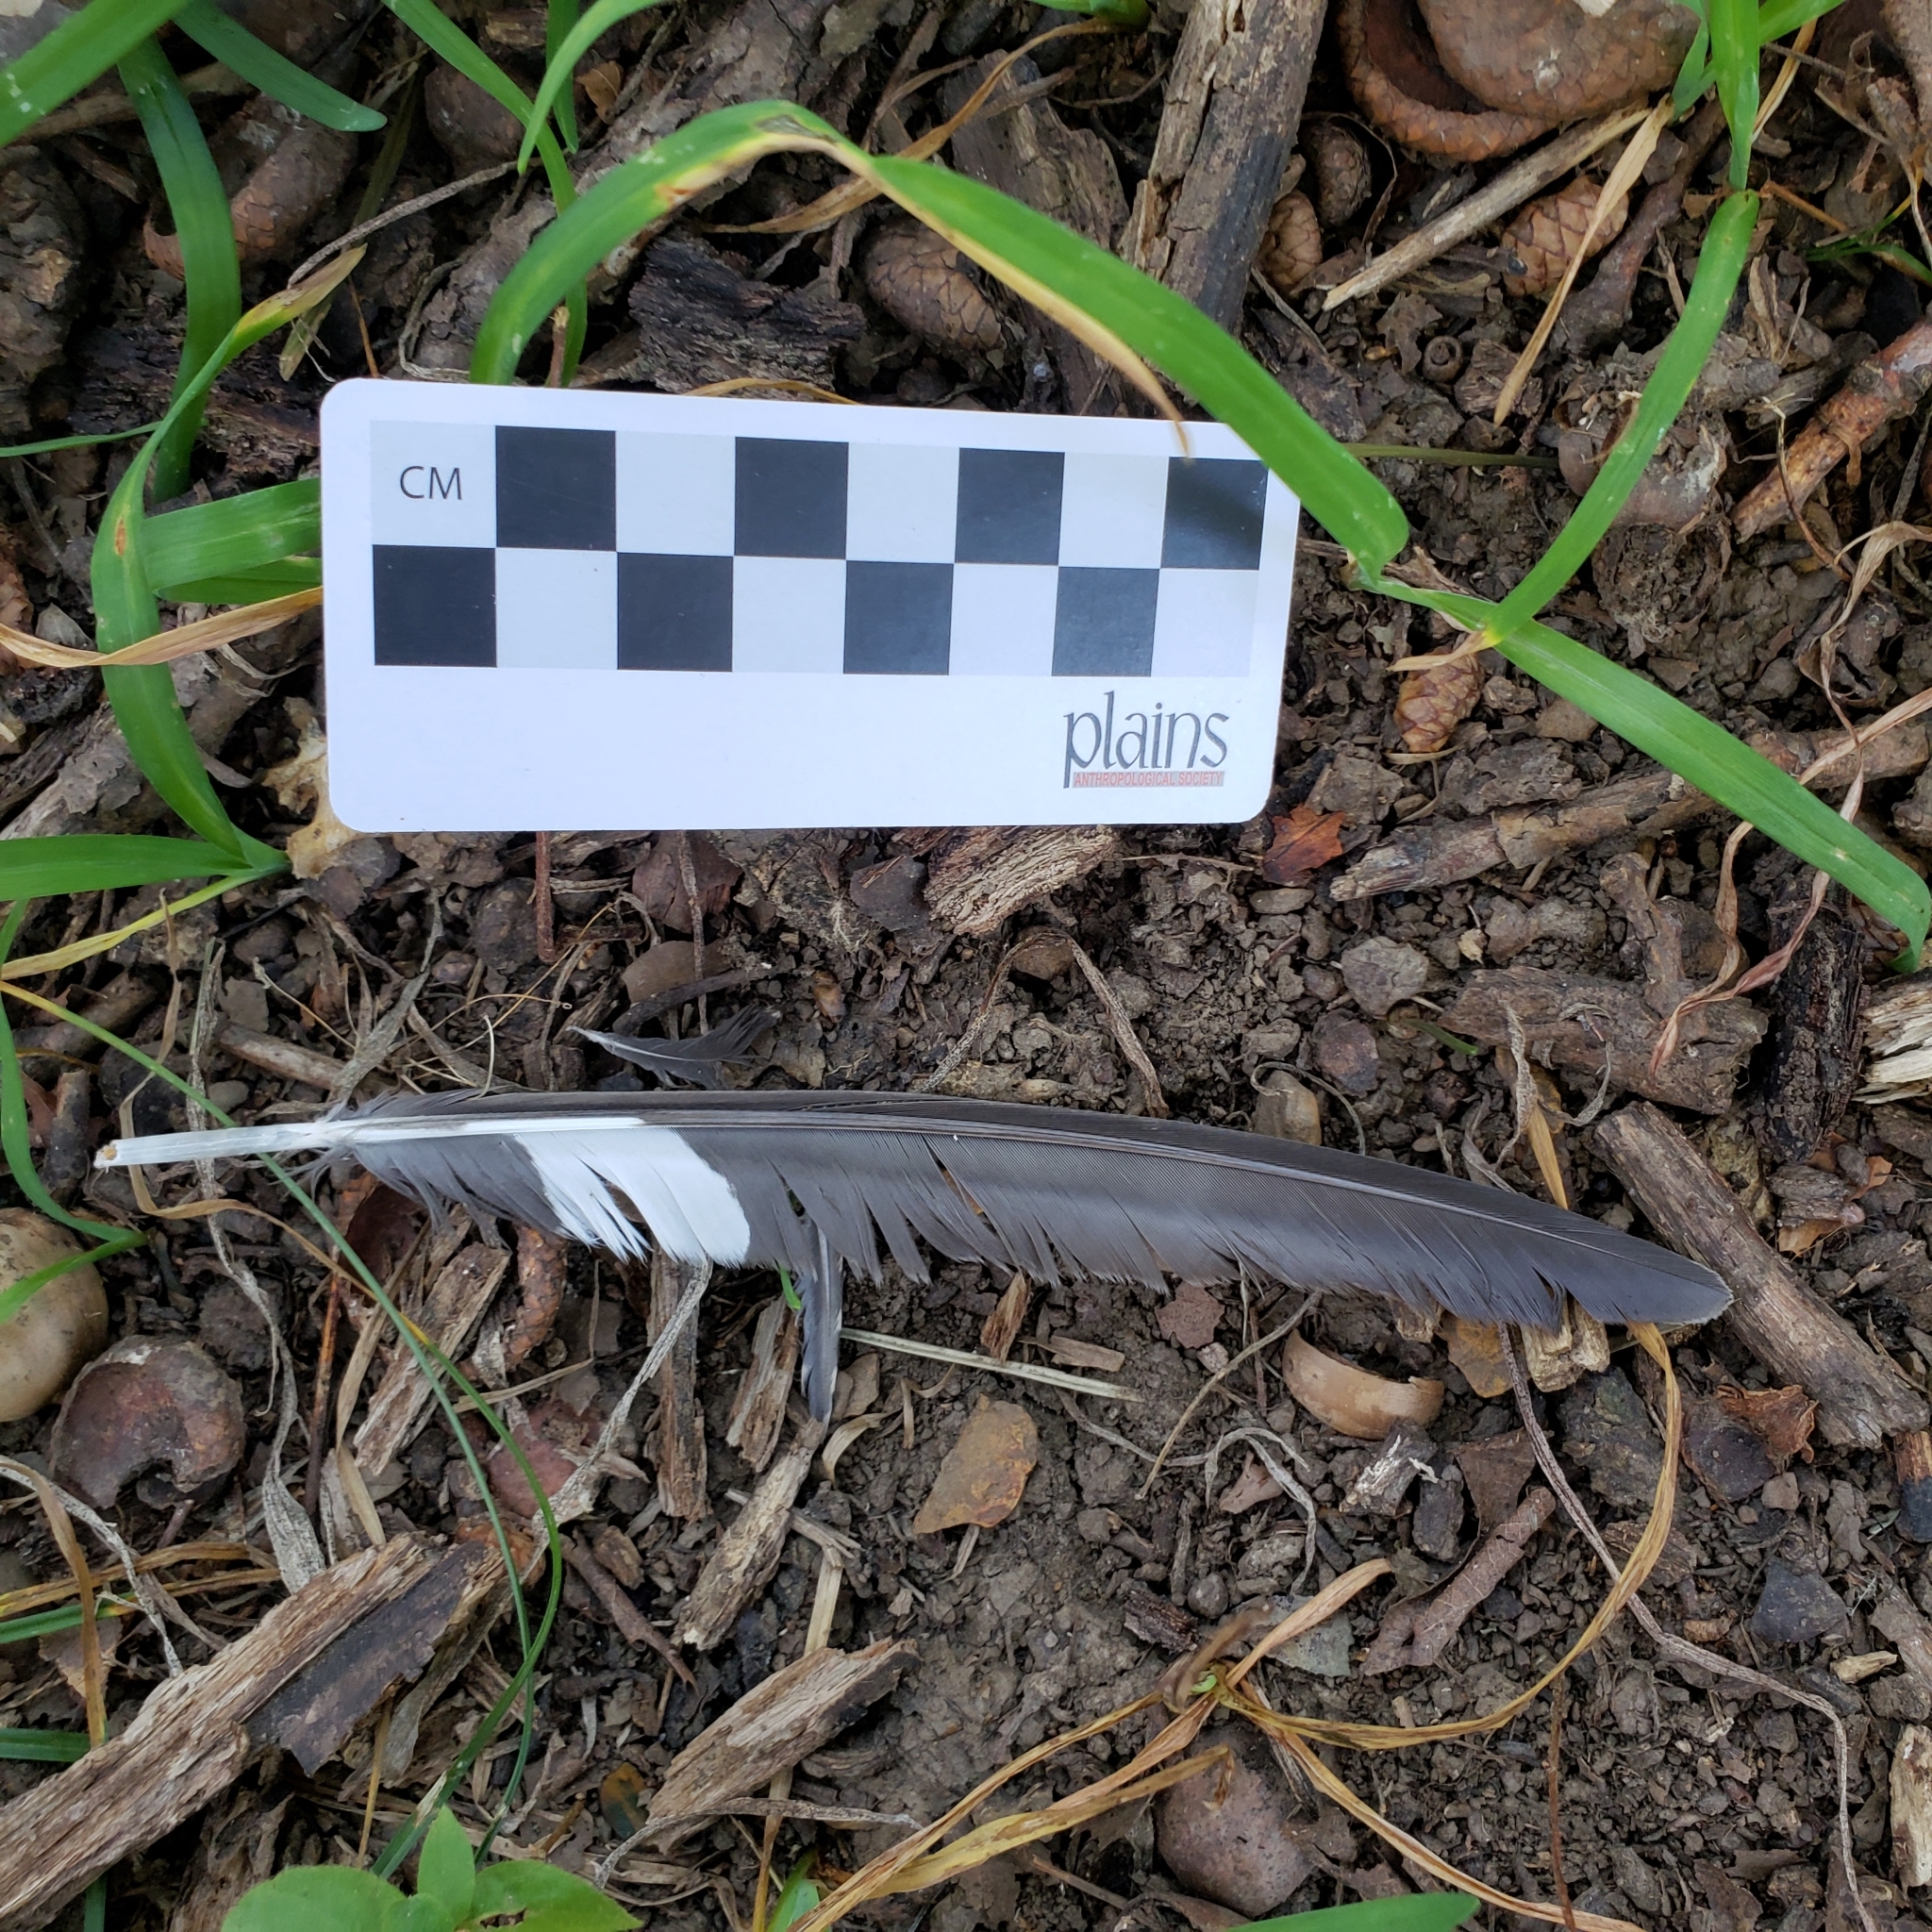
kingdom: Animalia
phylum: Chordata
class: Aves
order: Passeriformes
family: Corvidae
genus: Cyanocitta
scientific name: Cyanocitta cristata
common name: Blue jay
